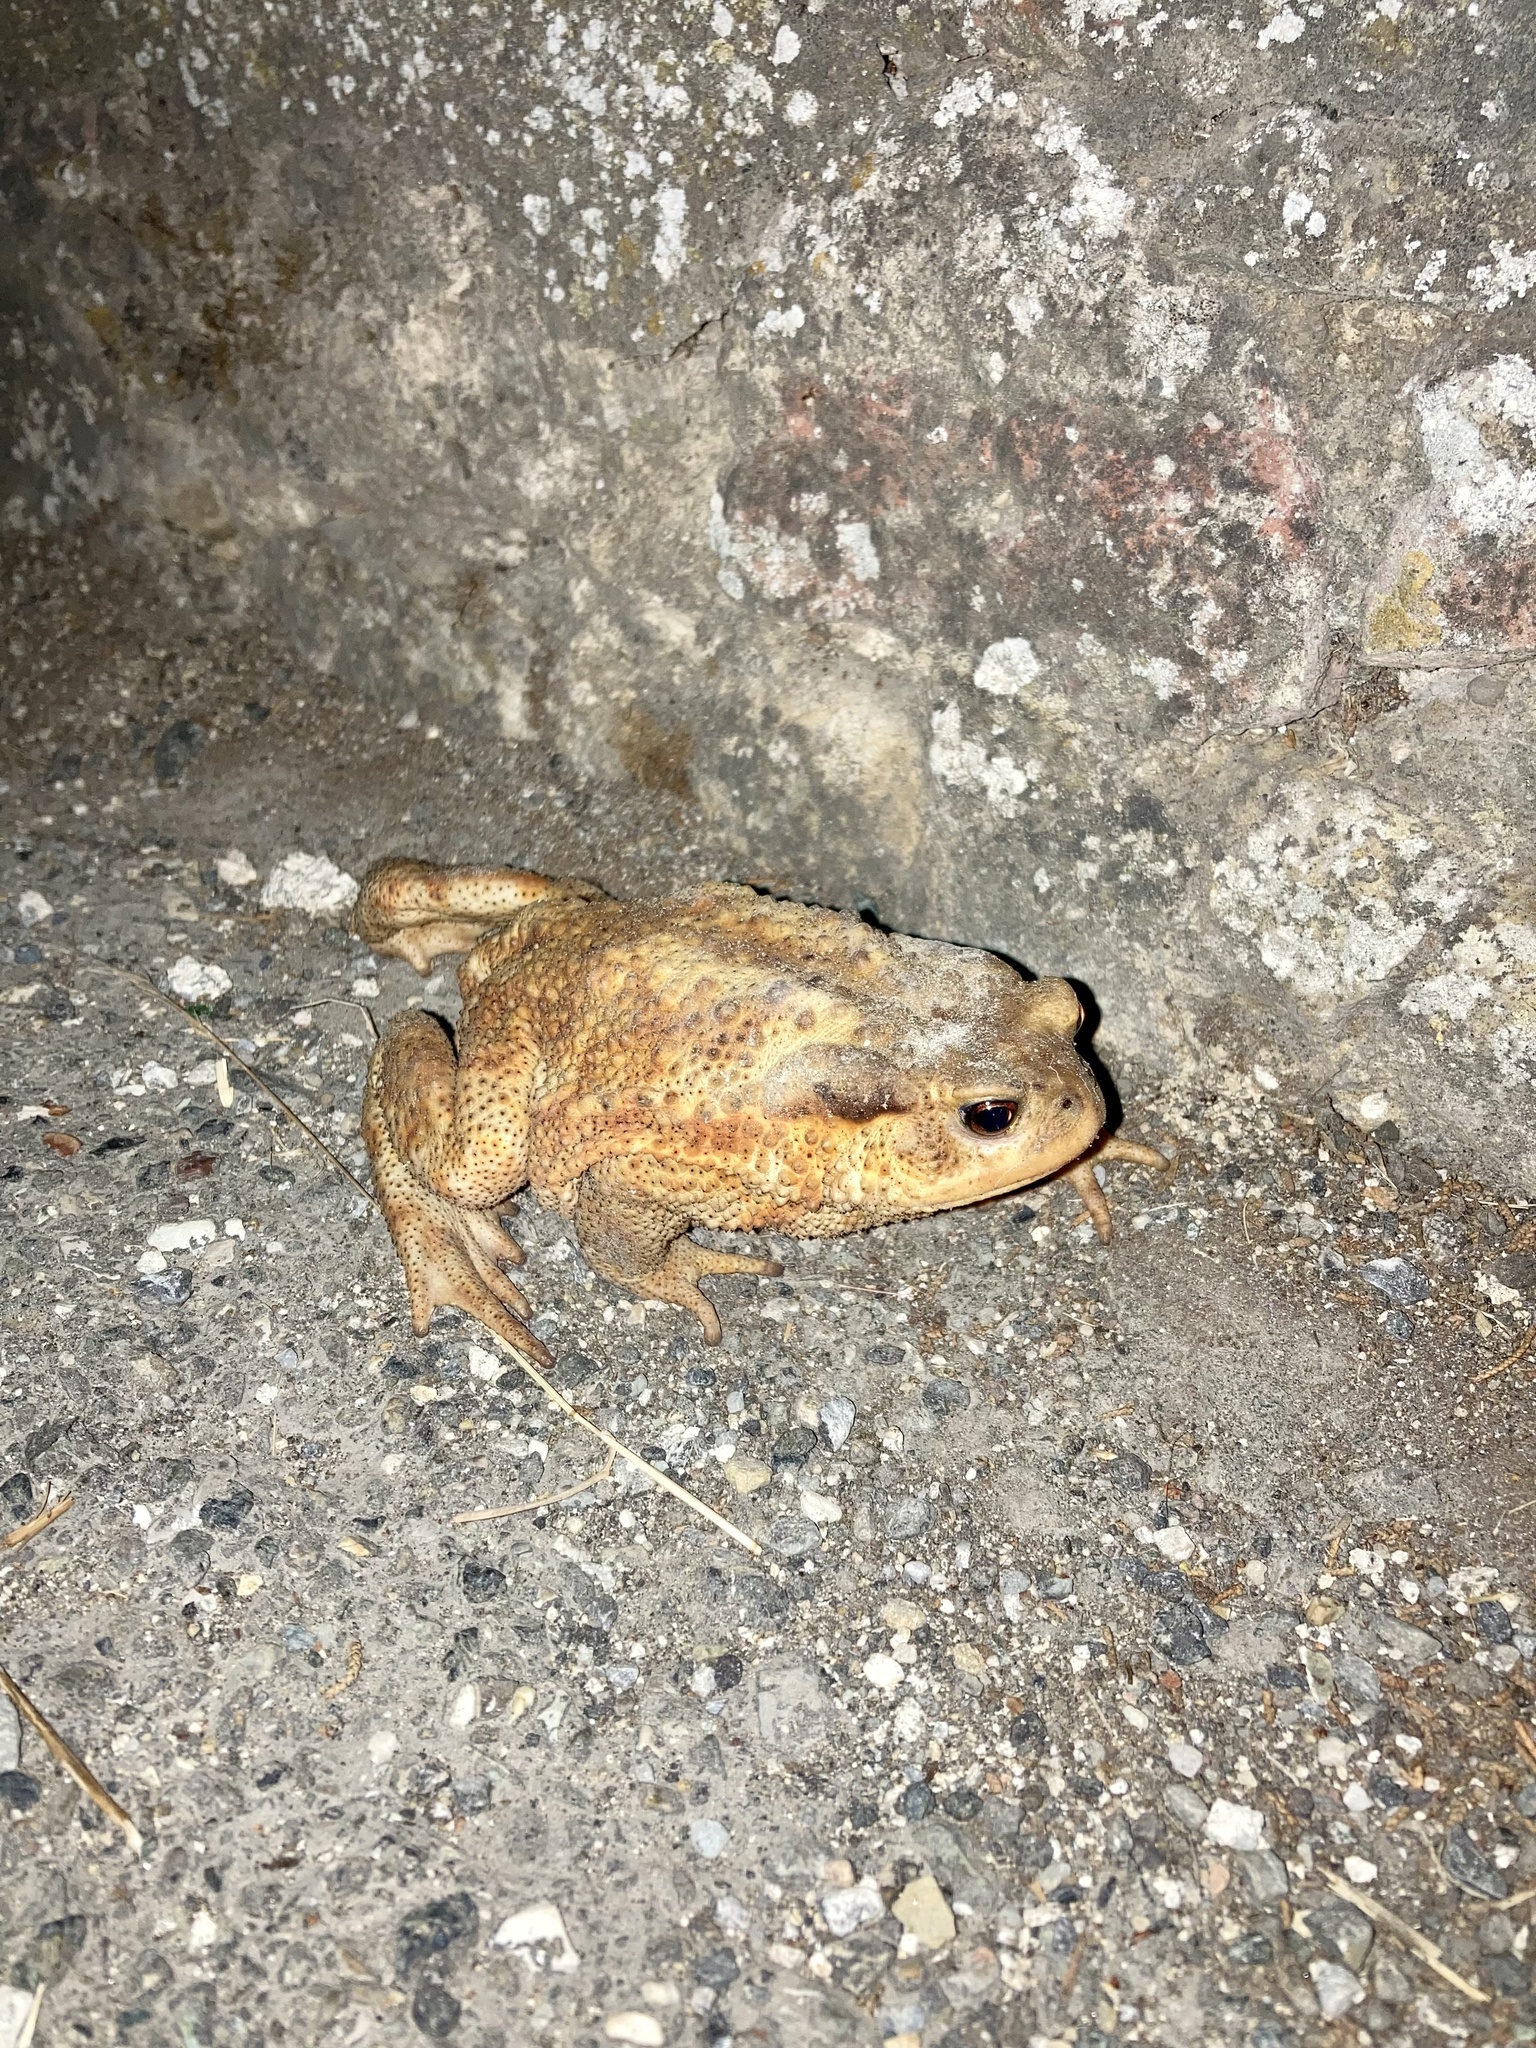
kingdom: Animalia
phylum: Chordata
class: Amphibia
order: Anura
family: Bufonidae
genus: Bufo
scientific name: Bufo bufo
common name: Common toad
